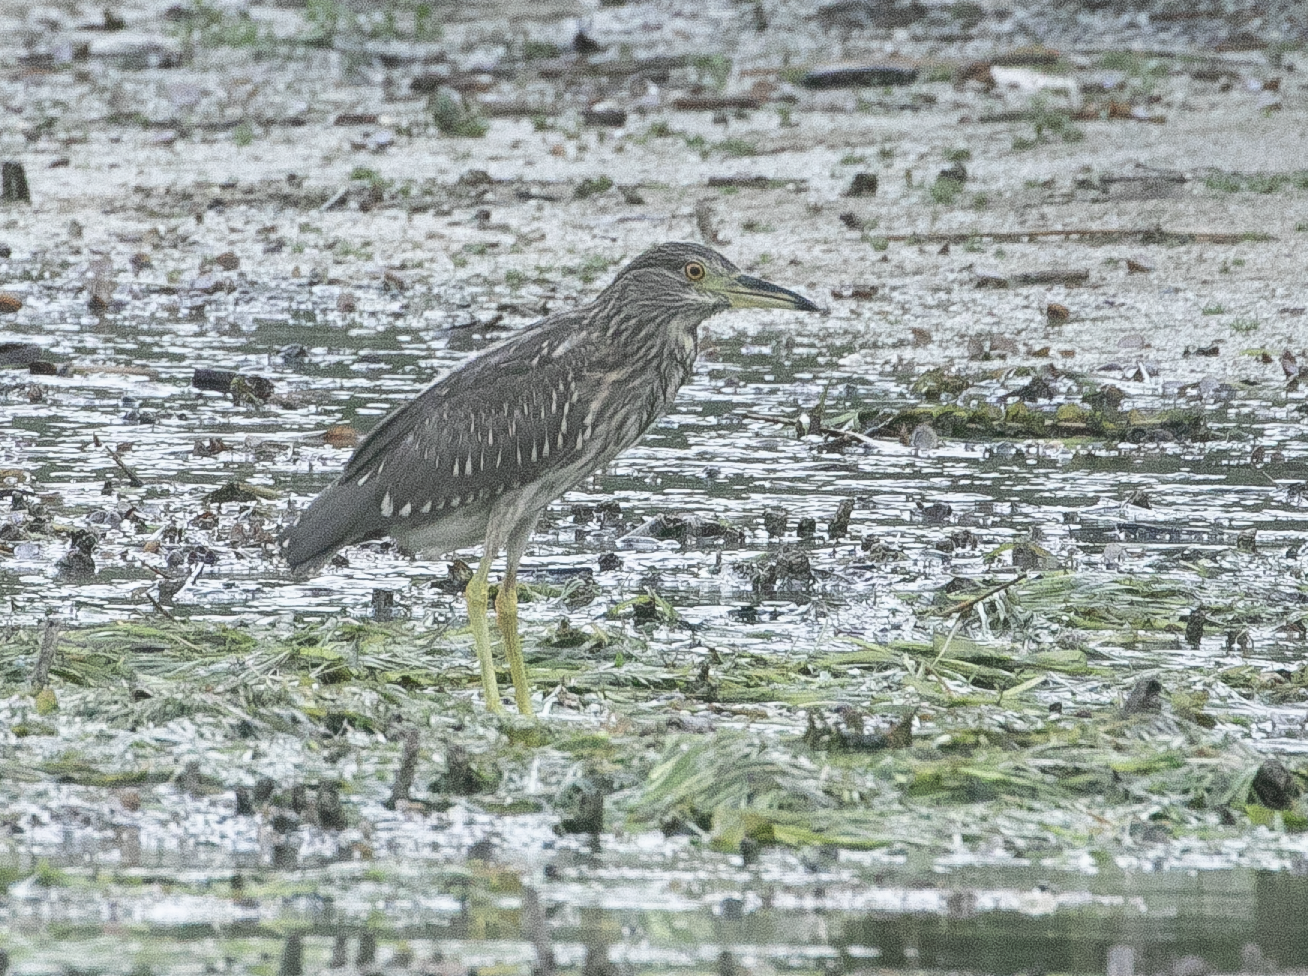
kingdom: Animalia
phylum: Chordata
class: Aves
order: Pelecaniformes
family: Ardeidae
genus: Nycticorax
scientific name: Nycticorax nycticorax
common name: Black-crowned night heron
